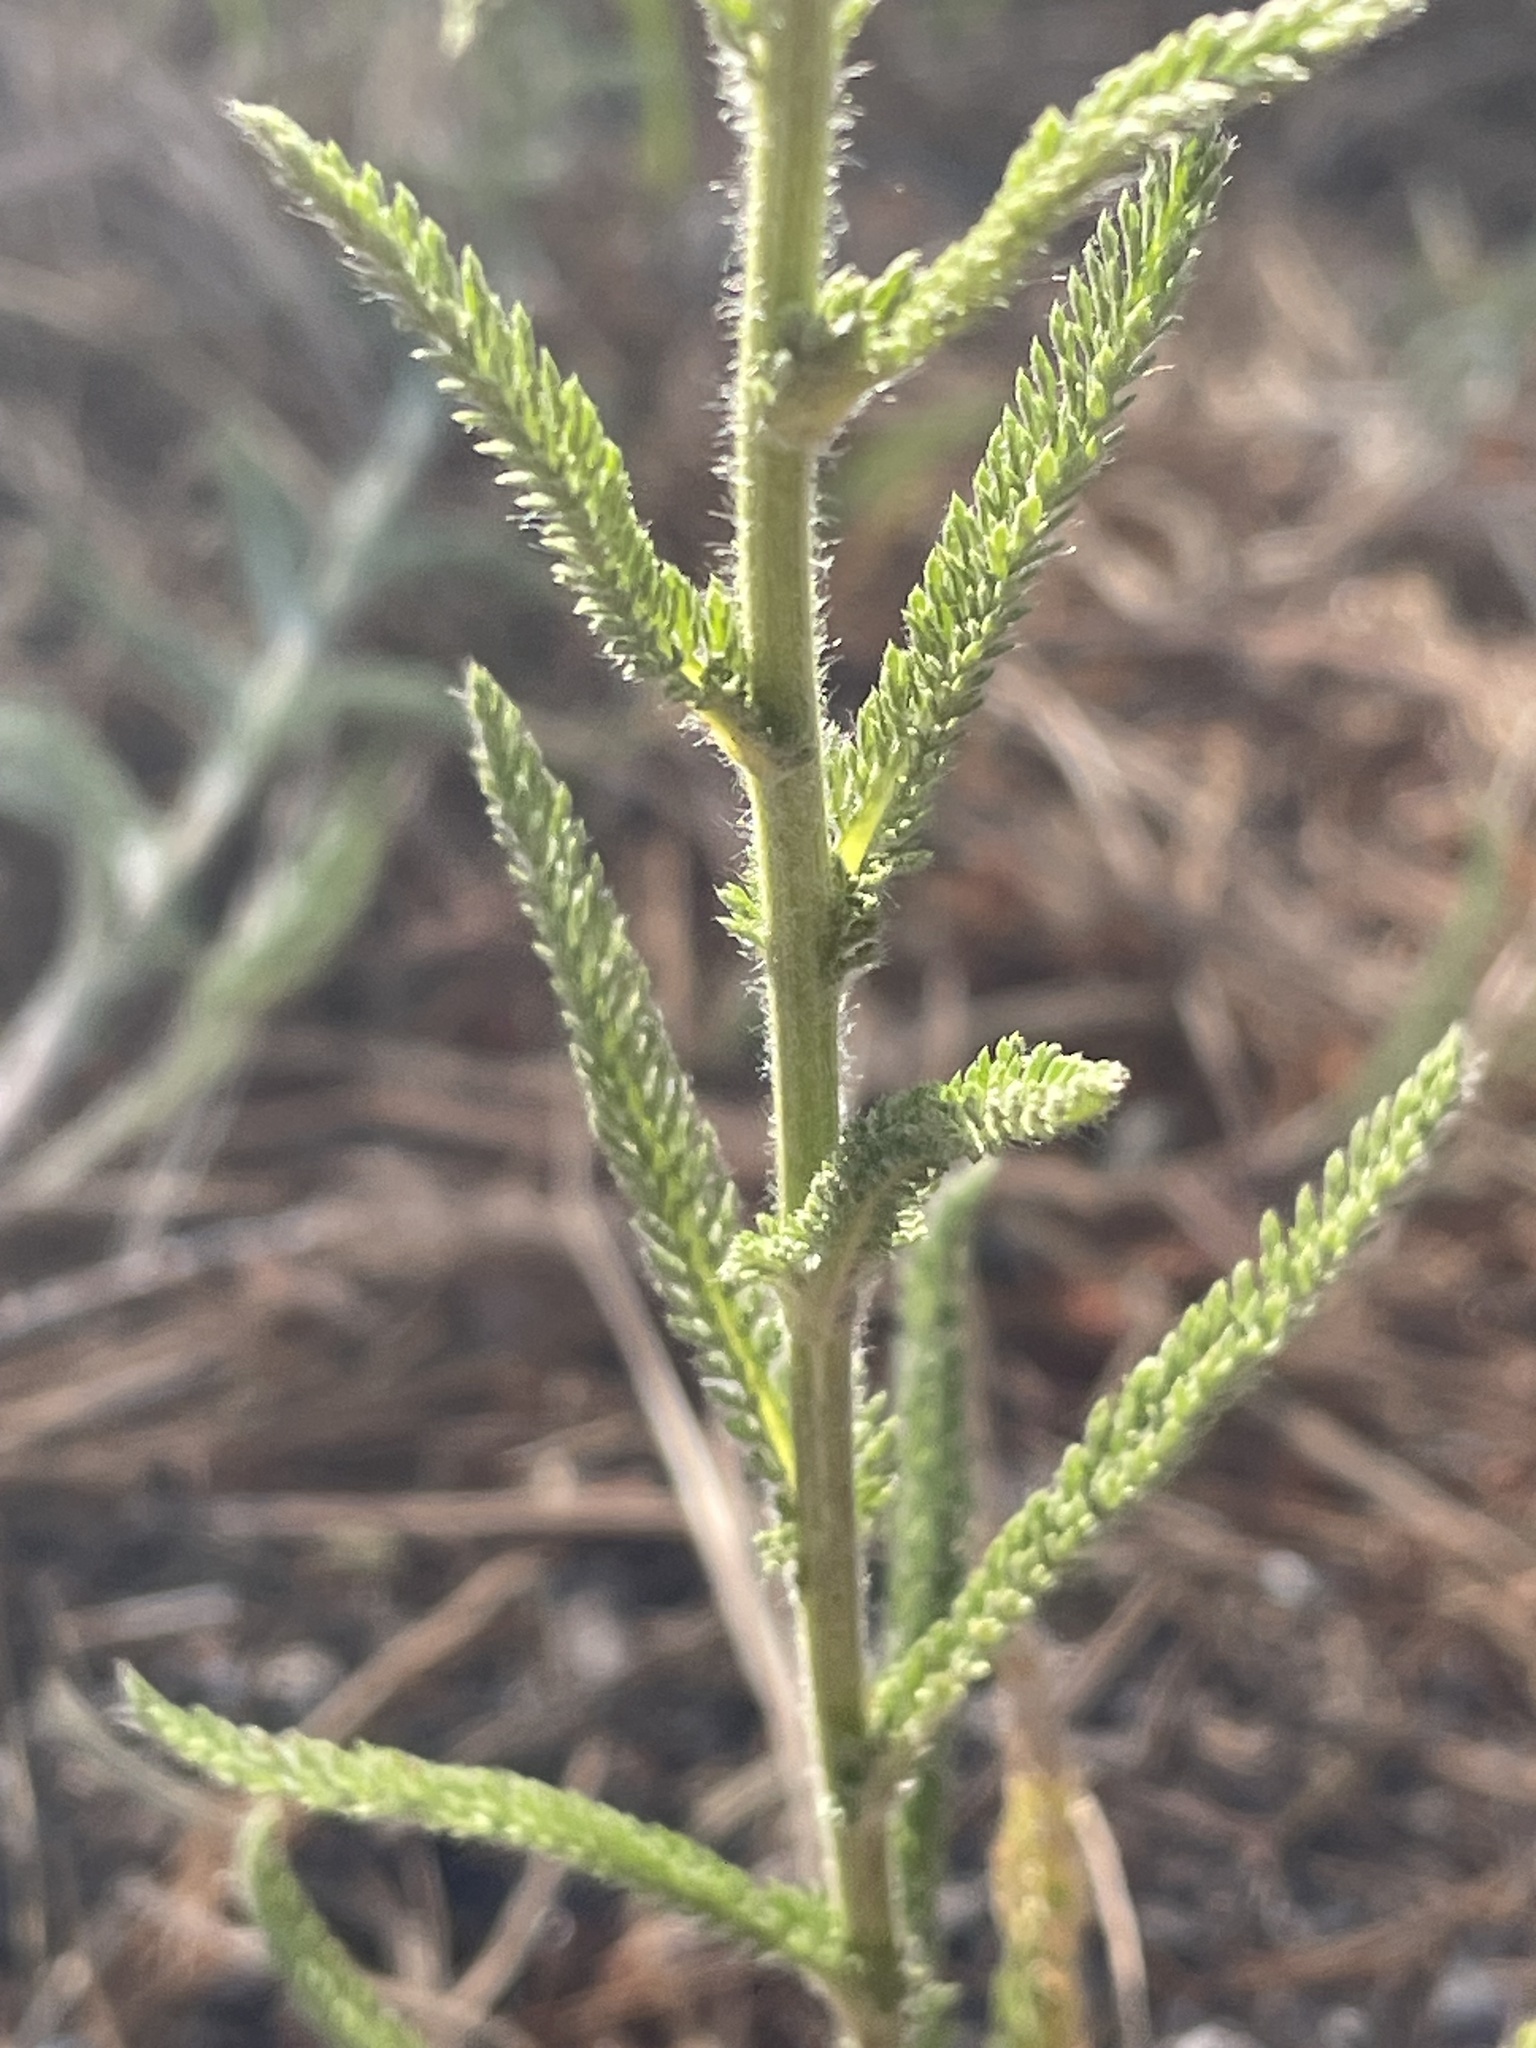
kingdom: Plantae
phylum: Tracheophyta
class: Magnoliopsida
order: Asterales
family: Asteraceae
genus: Achillea
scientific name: Achillea millefolium
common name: Yarrow
